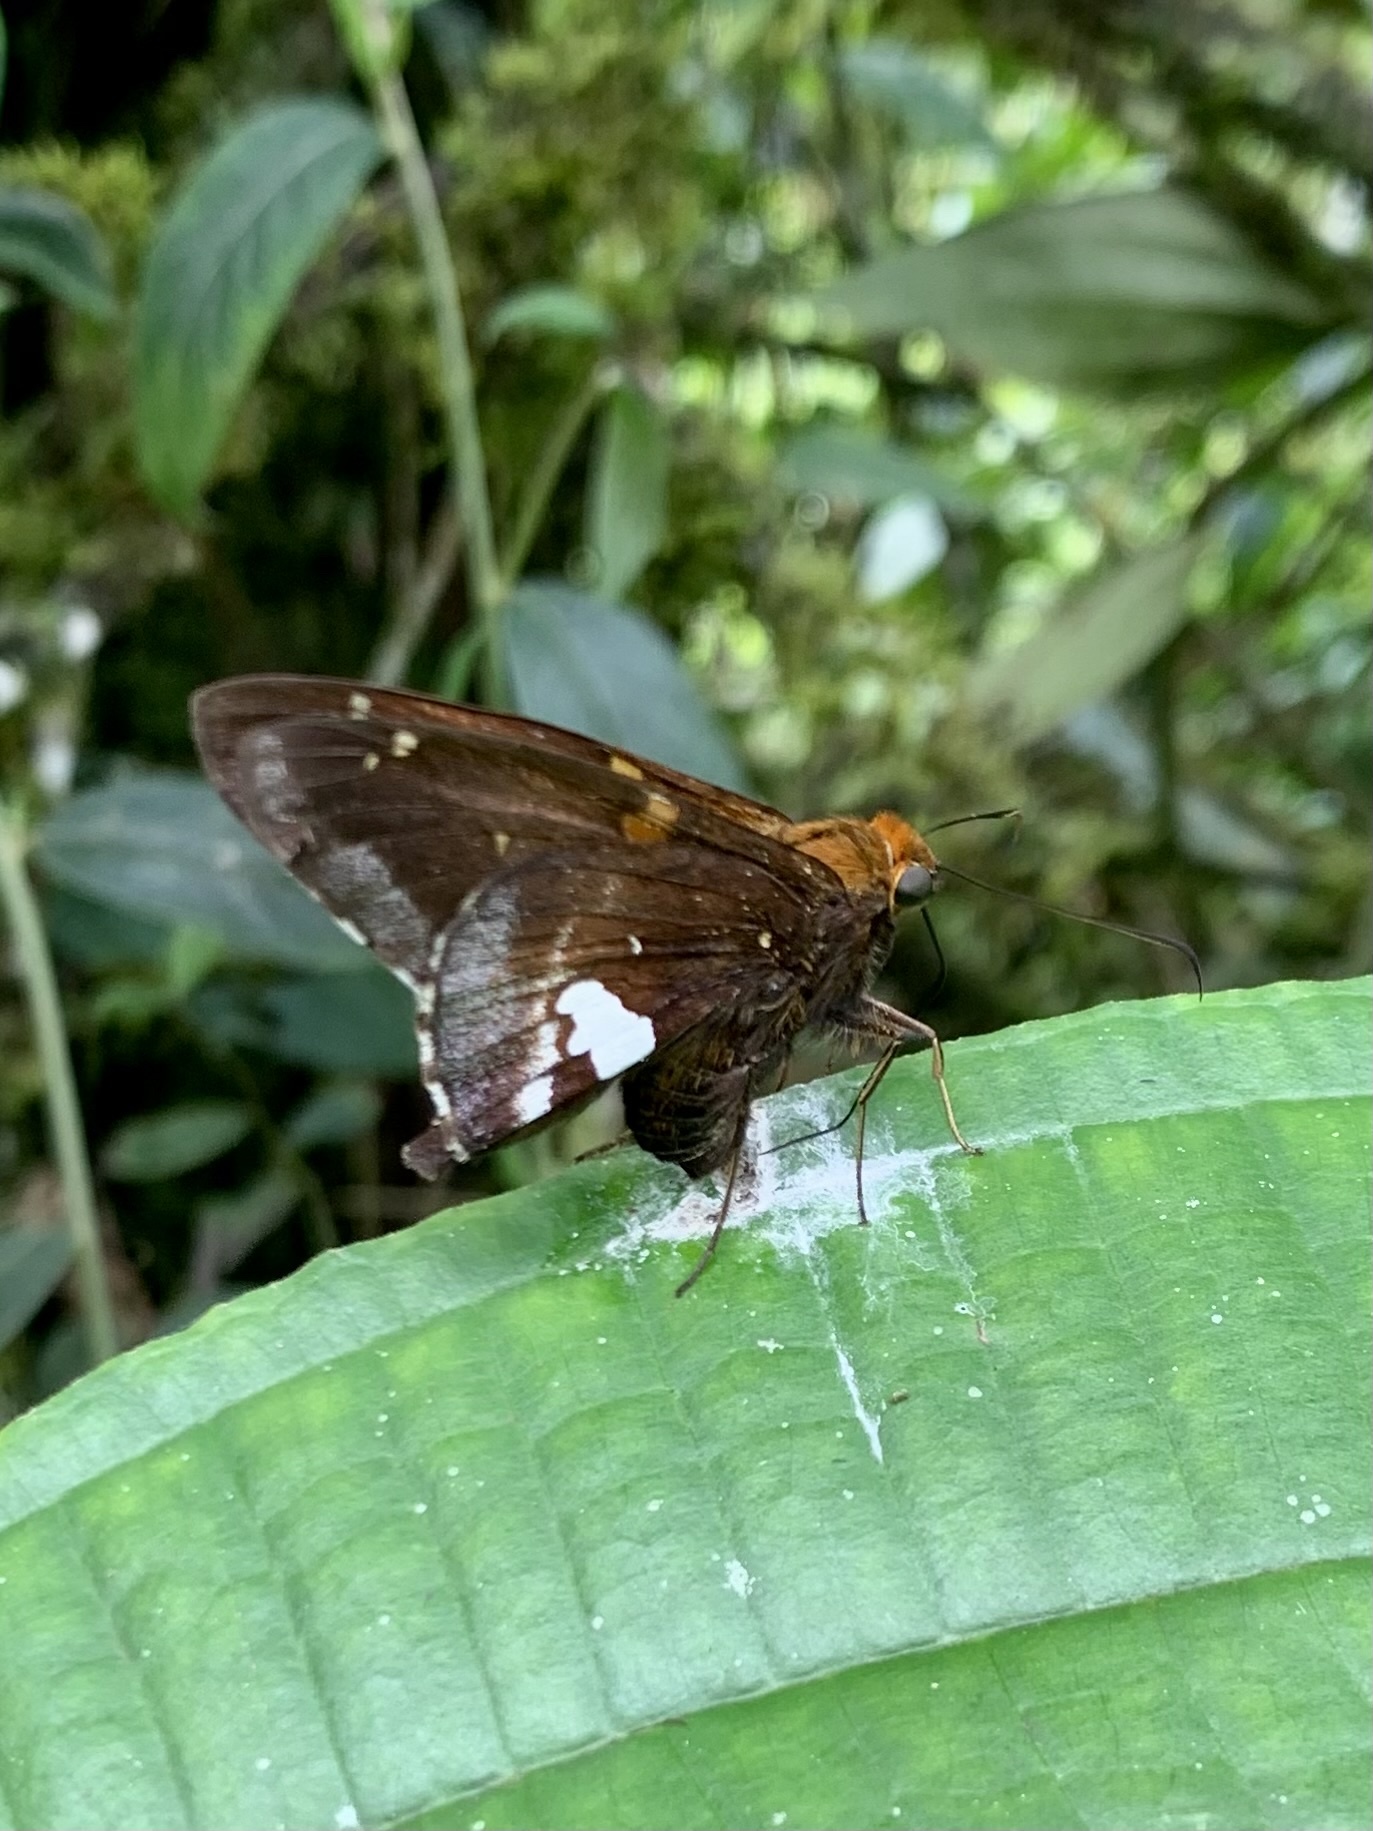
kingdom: Animalia
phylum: Arthropoda
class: Insecta
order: Lepidoptera
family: Hesperiidae
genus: Epargyreus
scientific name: Epargyreus exadeus
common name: Broken silverdrop
